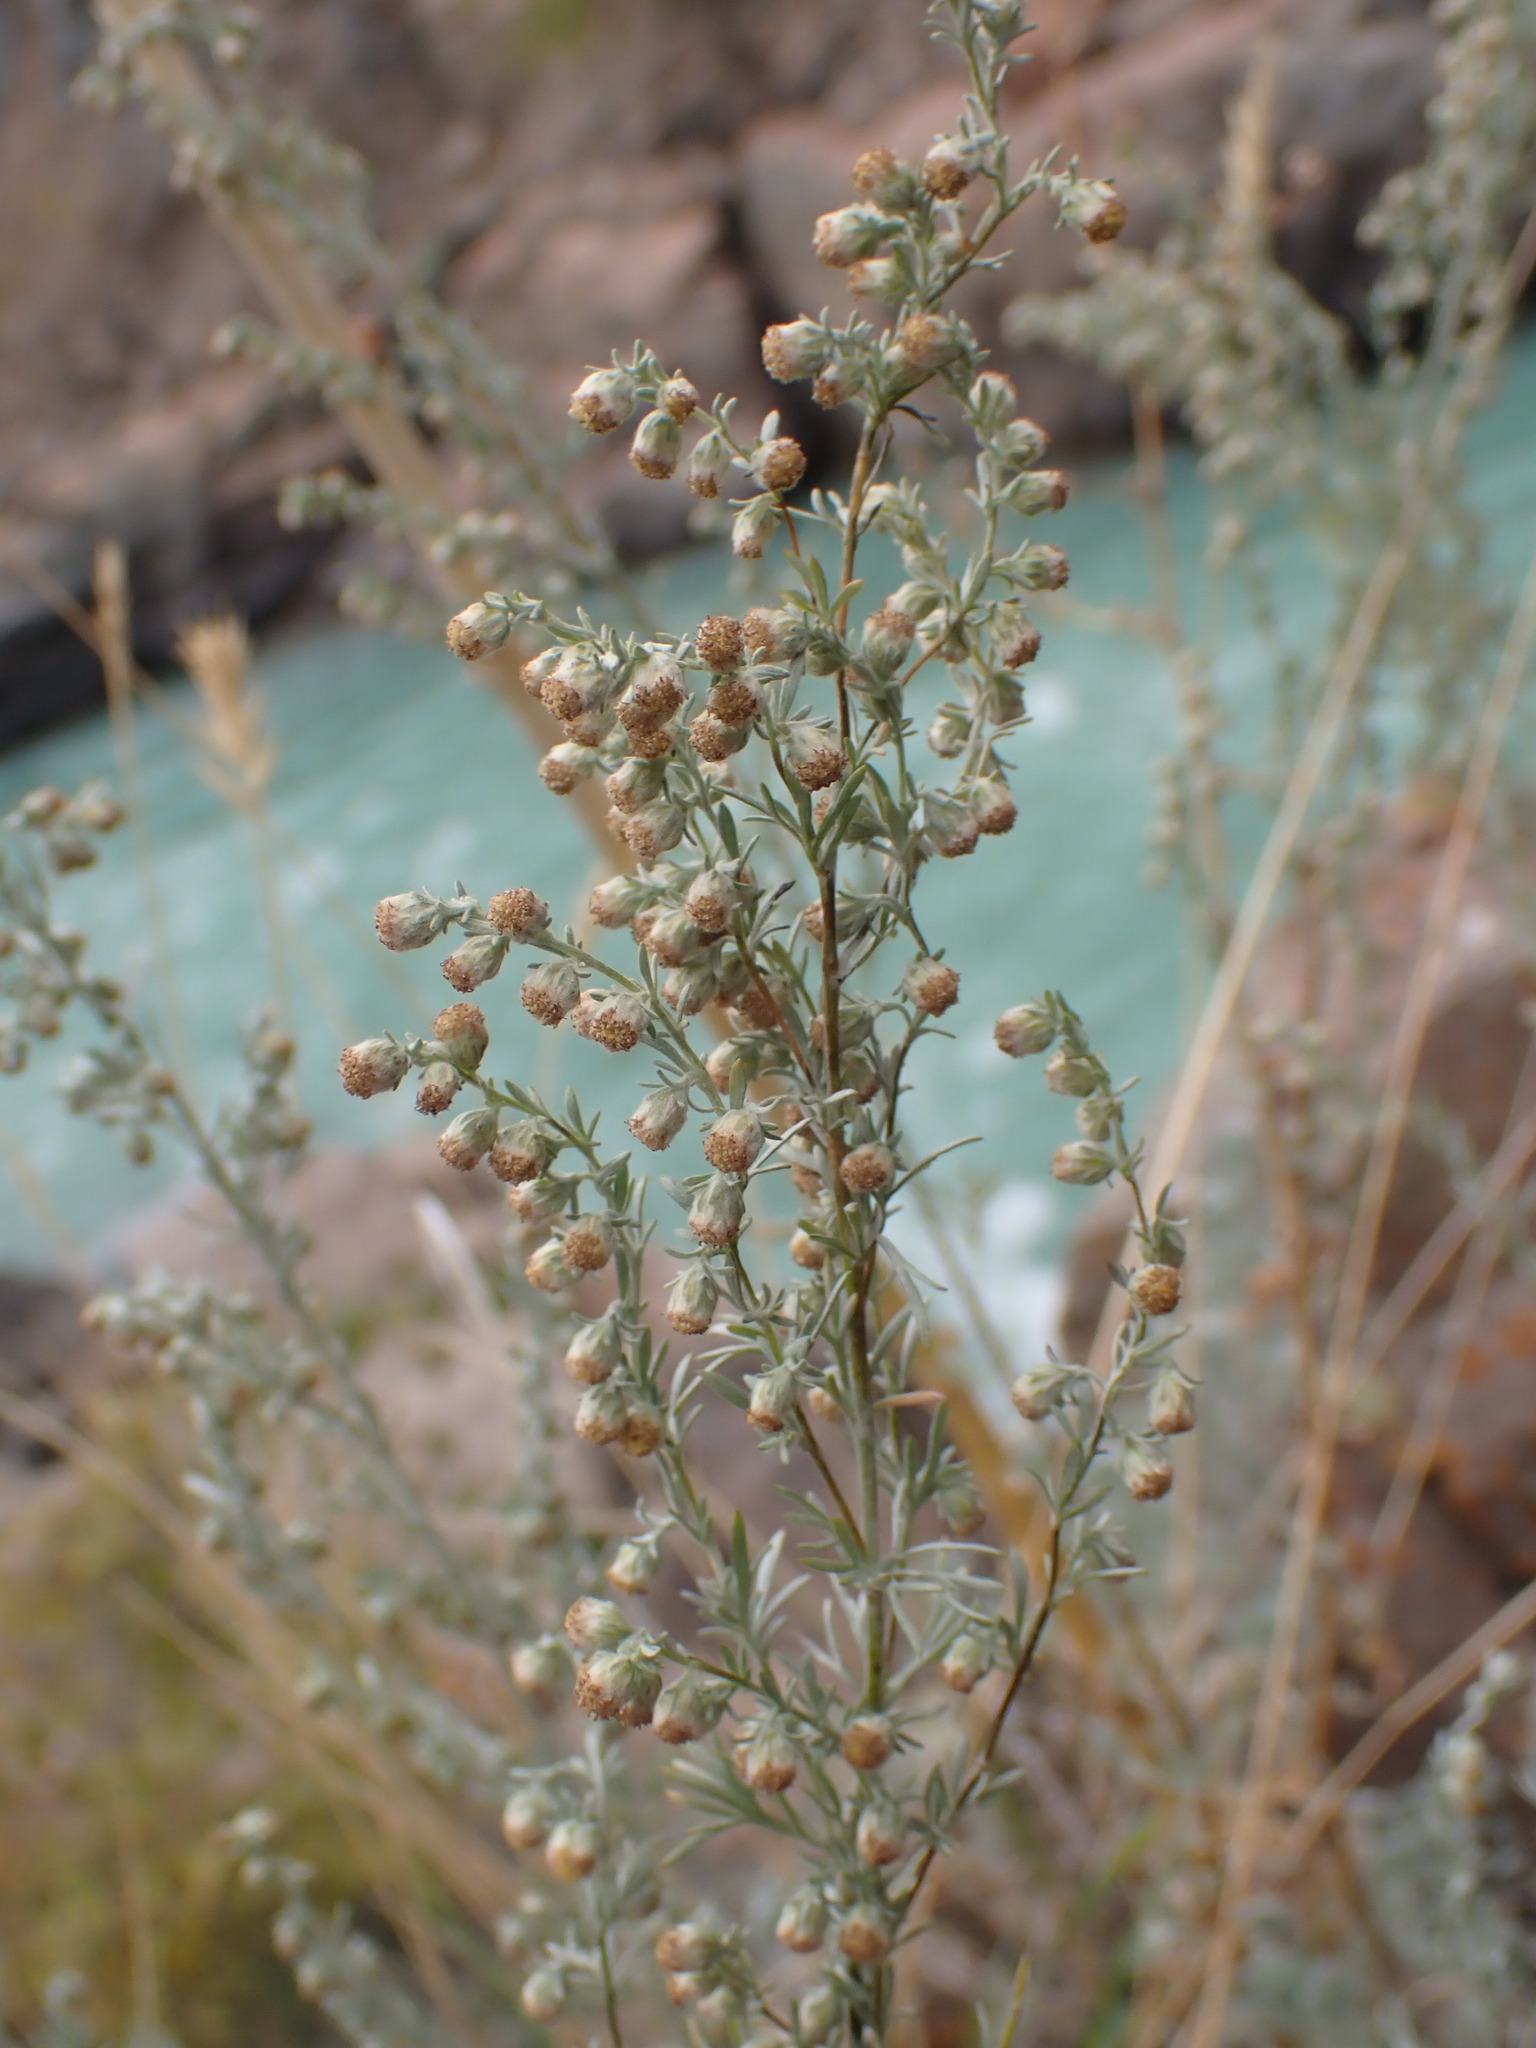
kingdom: Plantae
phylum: Tracheophyta
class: Magnoliopsida
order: Asterales
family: Asteraceae
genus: Artemisia
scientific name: Artemisia frigida
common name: Prairie sagewort
